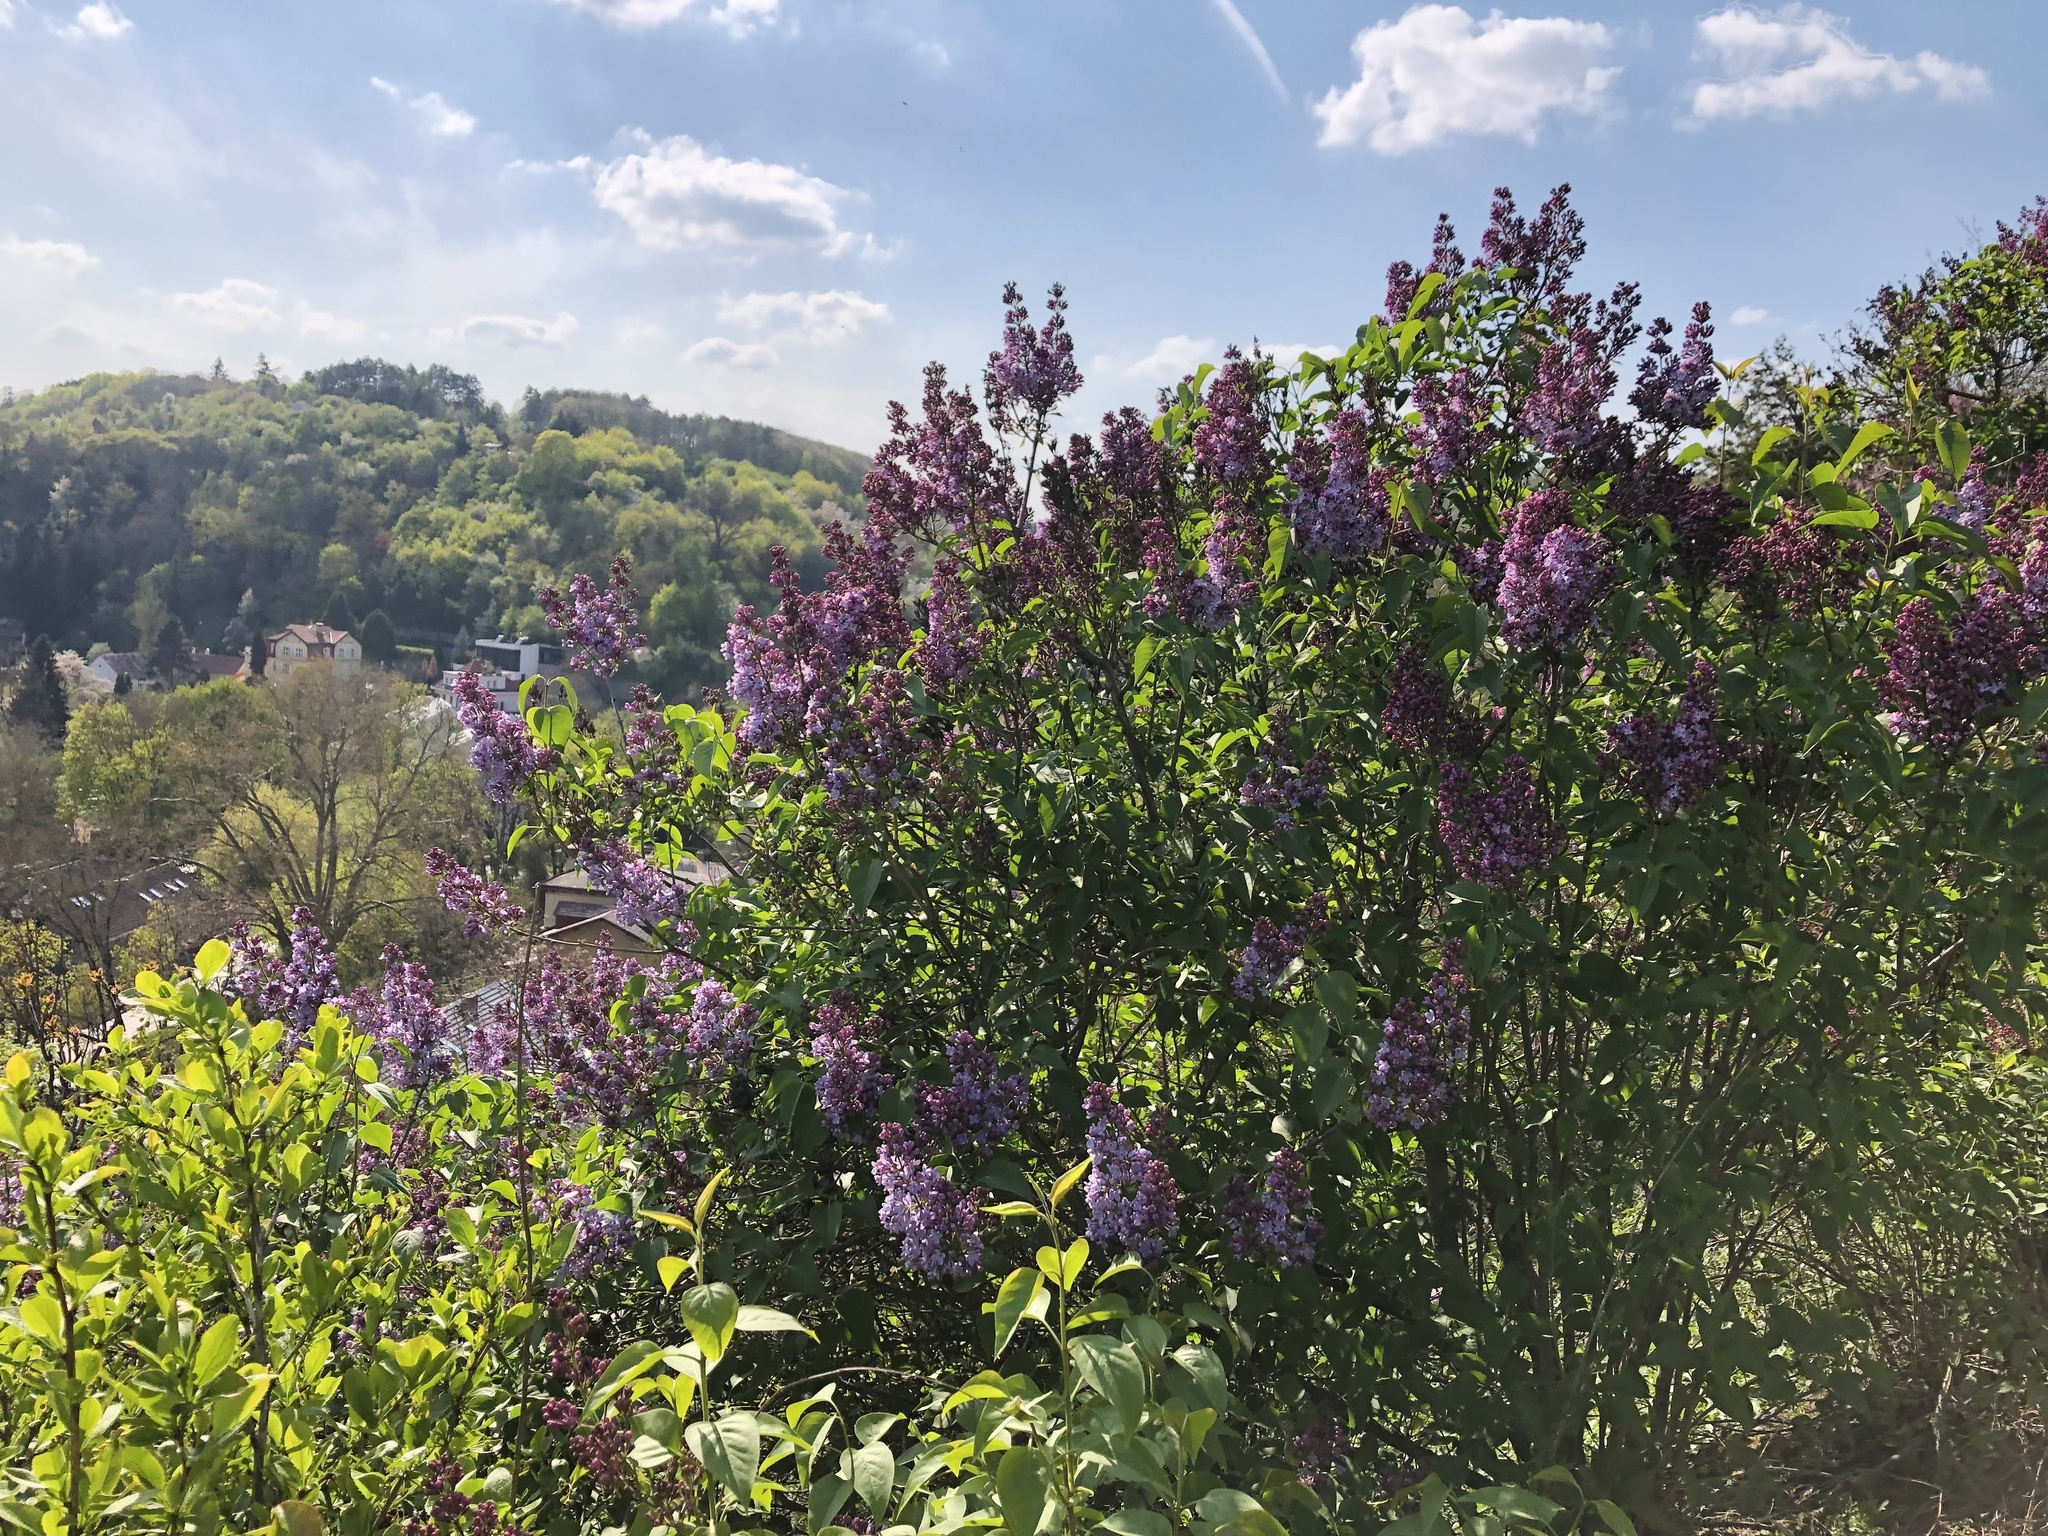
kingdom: Plantae
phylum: Tracheophyta
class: Magnoliopsida
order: Lamiales
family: Oleaceae
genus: Syringa
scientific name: Syringa vulgaris
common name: Common lilac
